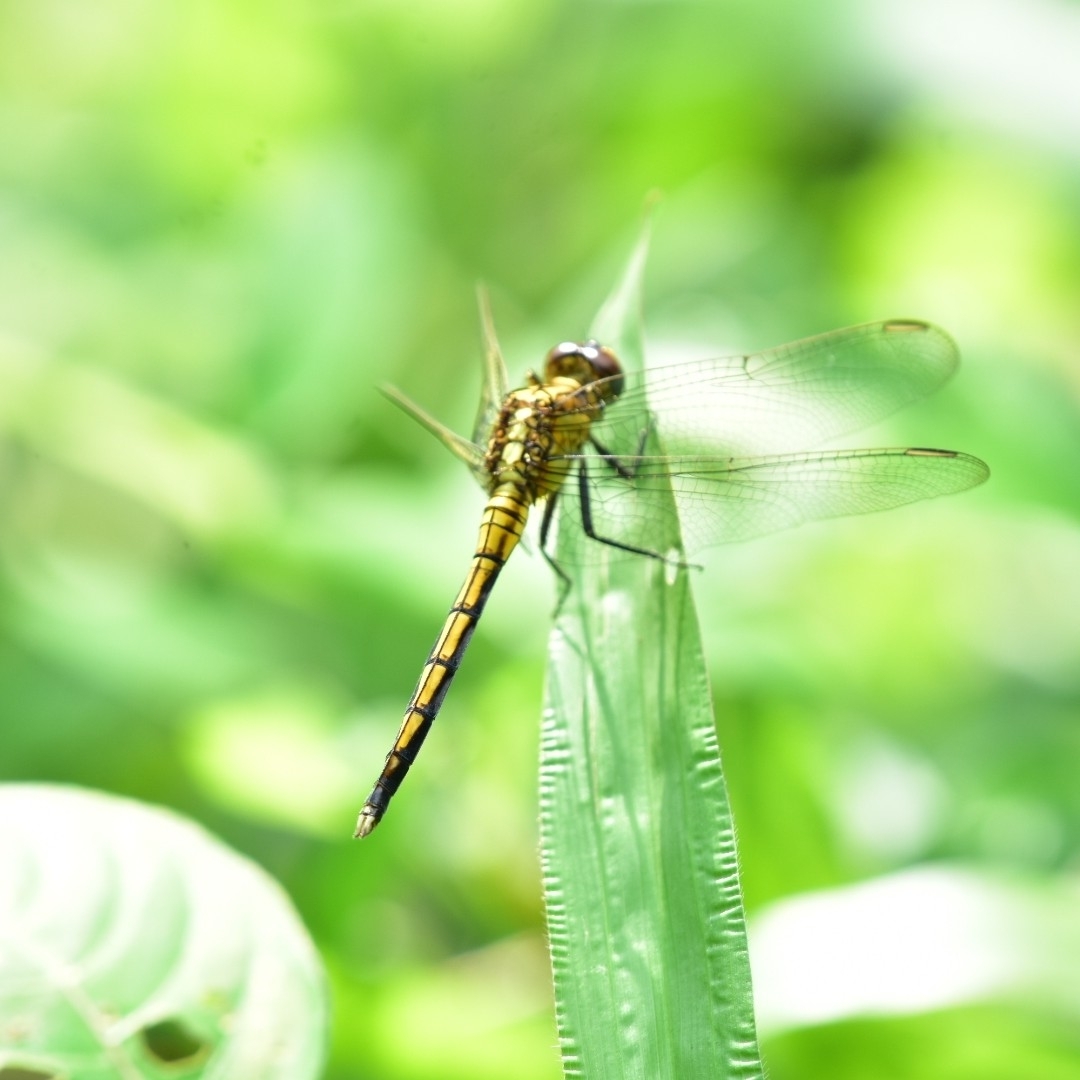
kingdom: Animalia
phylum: Arthropoda
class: Insecta
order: Odonata
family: Libellulidae
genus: Orthetrum
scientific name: Orthetrum luzonicum
